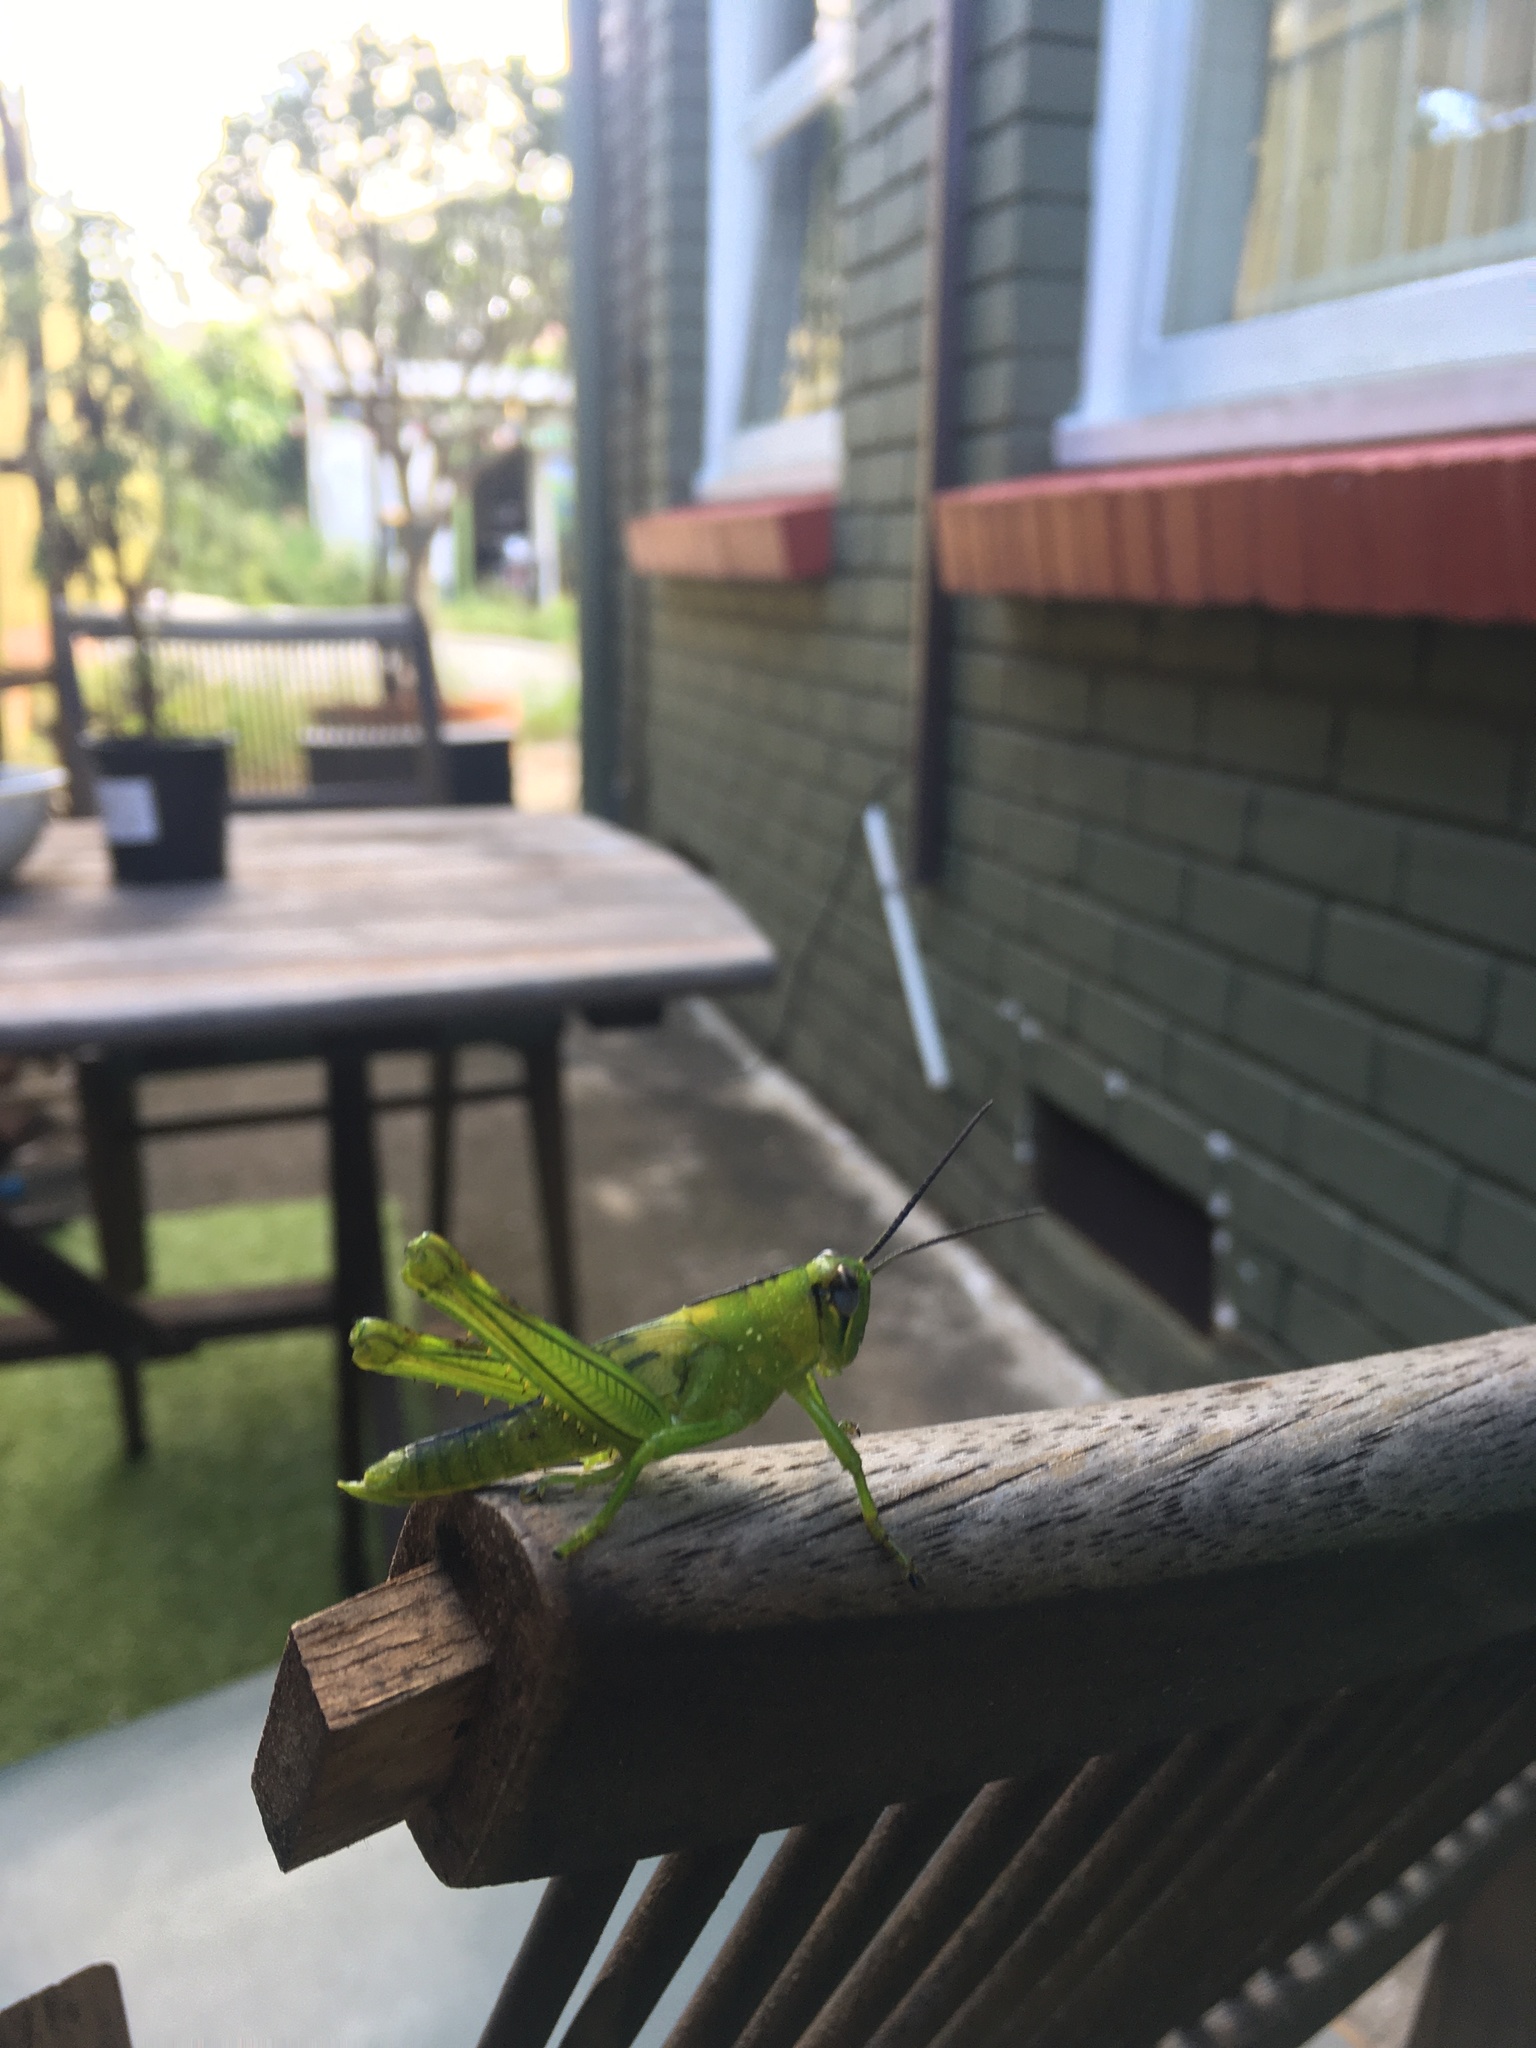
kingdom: Animalia
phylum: Arthropoda
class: Insecta
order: Orthoptera
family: Acrididae
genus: Valanga
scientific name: Valanga irregularis
